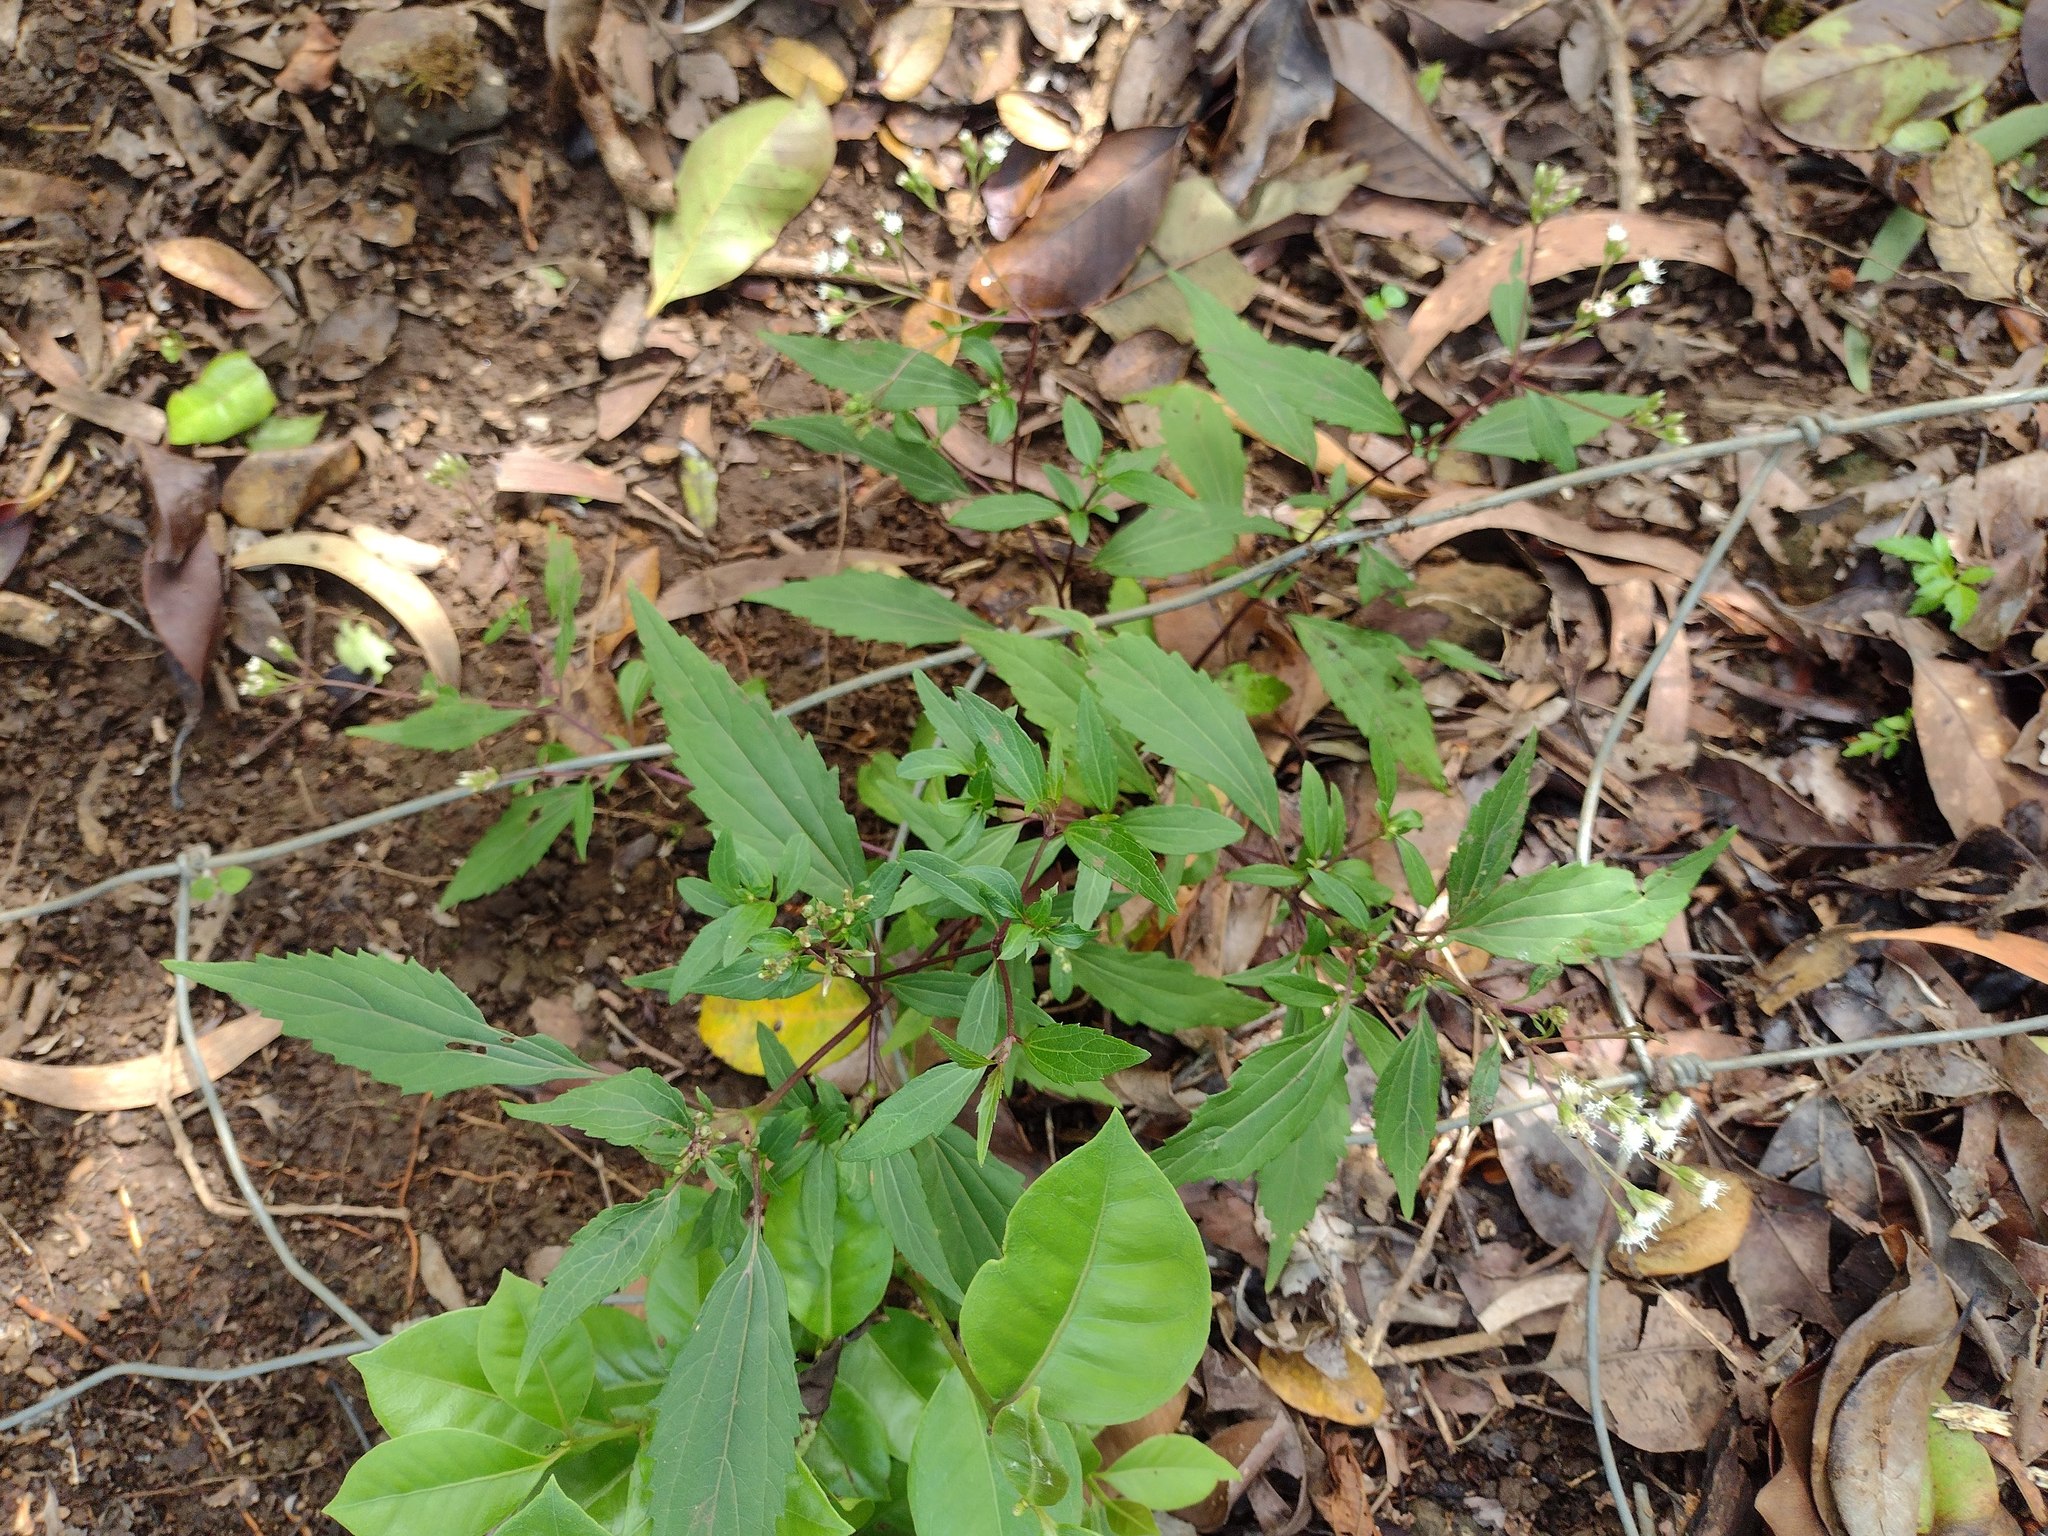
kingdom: Plantae
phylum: Tracheophyta
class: Magnoliopsida
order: Asterales
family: Asteraceae
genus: Ageratina
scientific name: Ageratina riparia
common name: Creeping croftonweed
